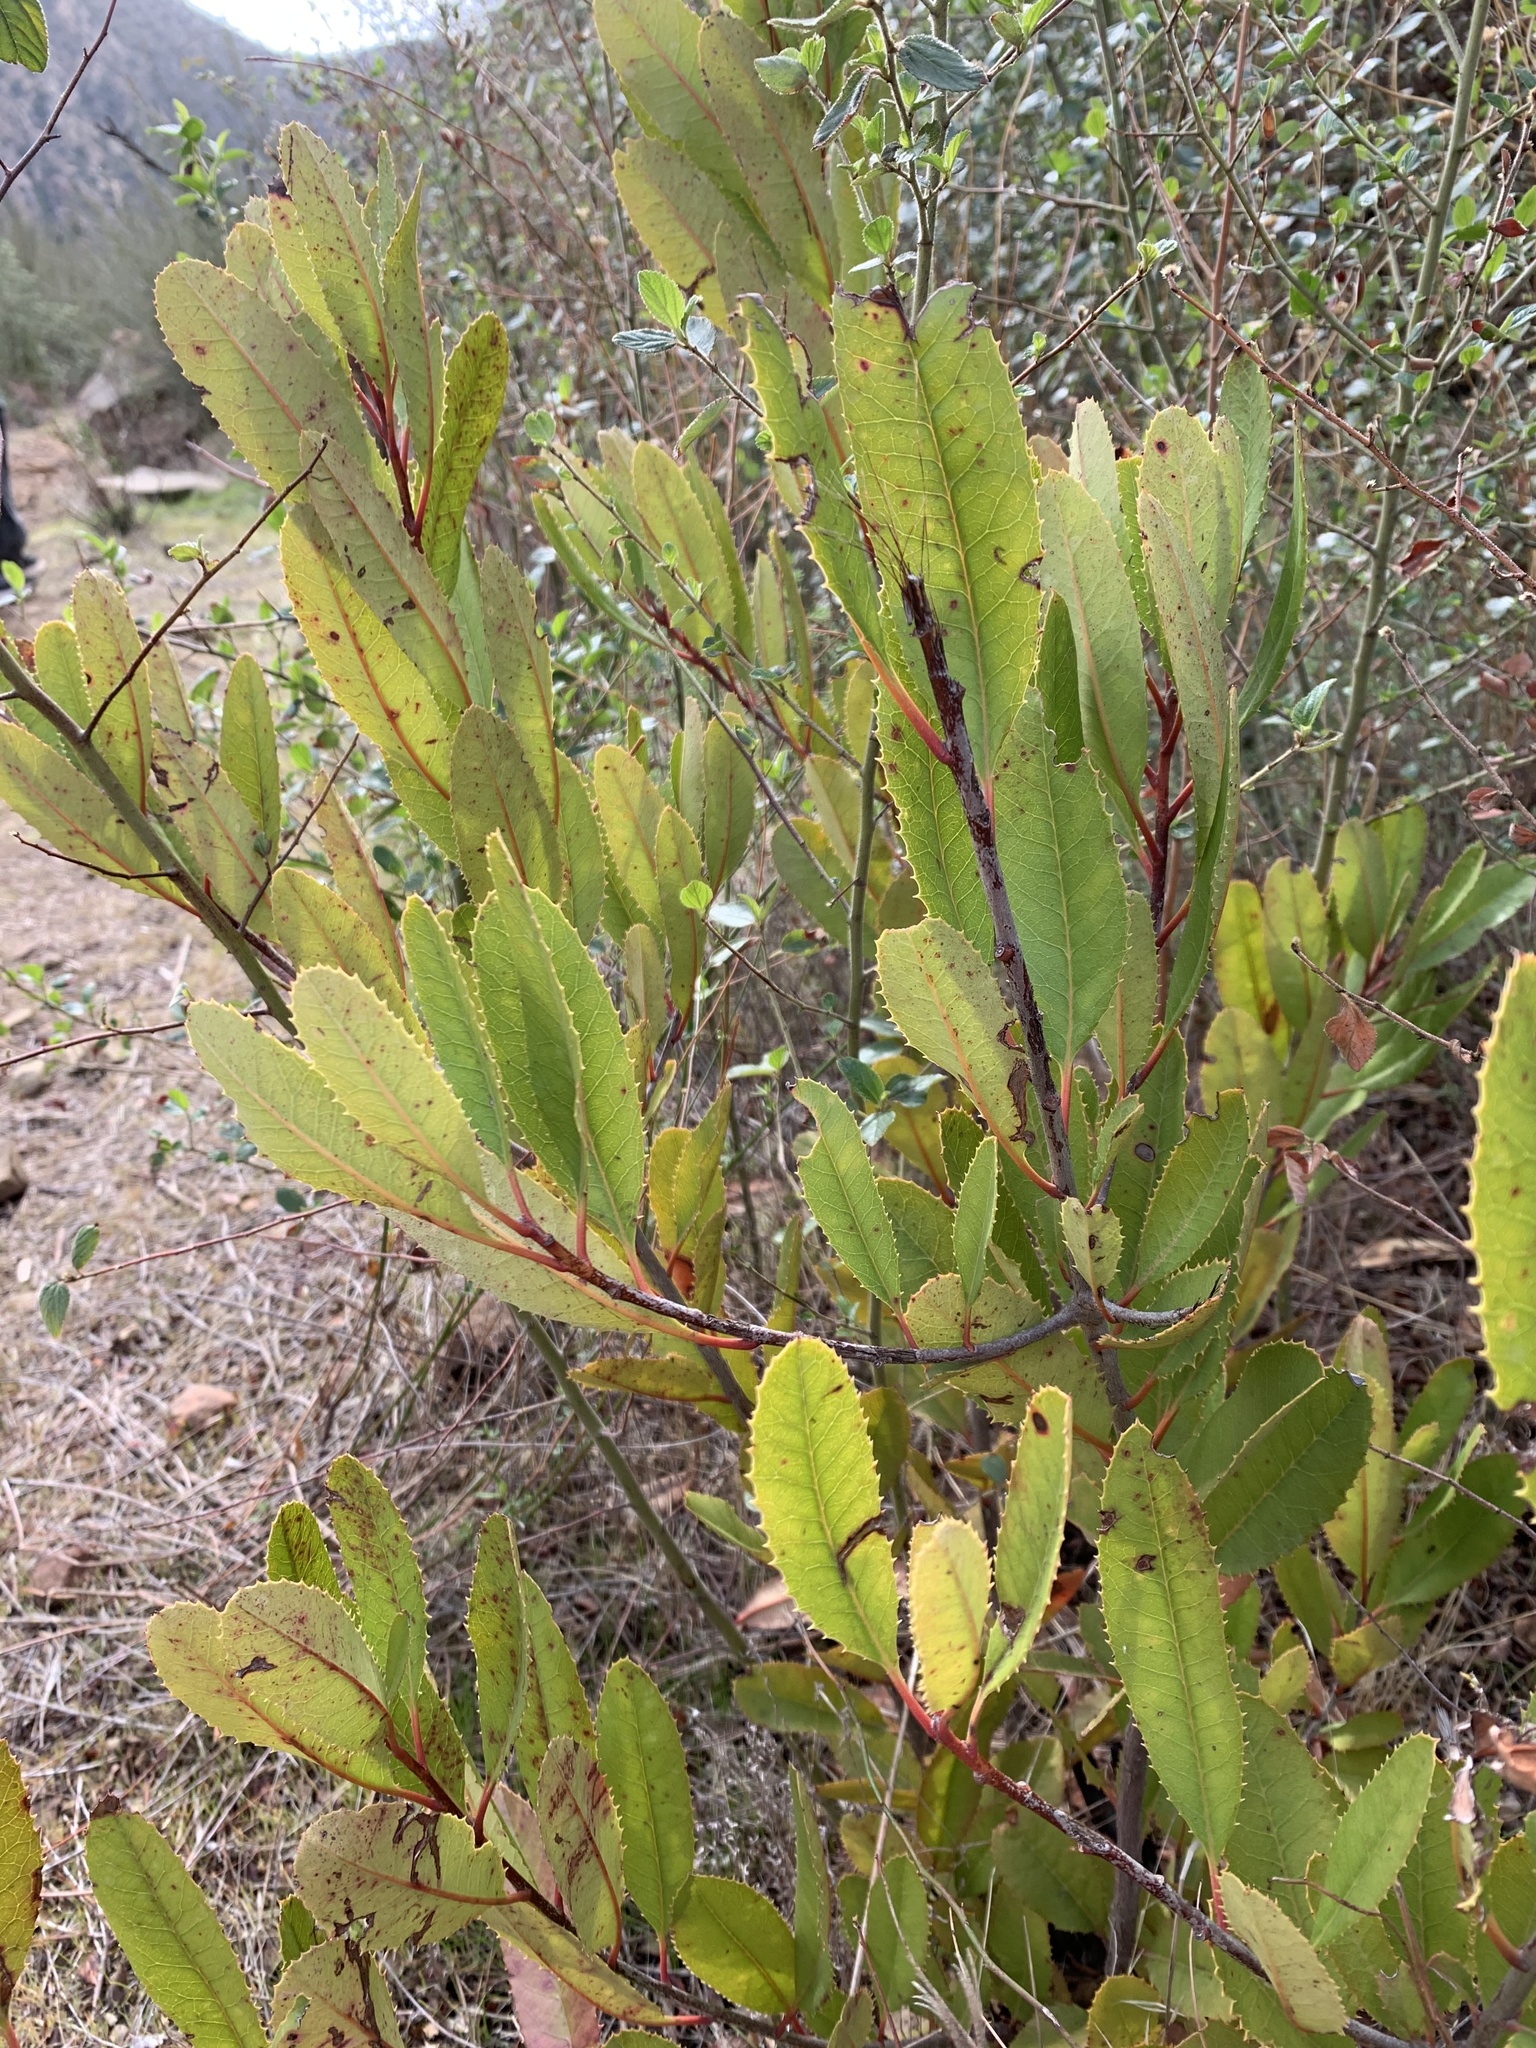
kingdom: Plantae
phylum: Tracheophyta
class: Magnoliopsida
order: Rosales
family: Rosaceae
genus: Heteromeles
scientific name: Heteromeles arbutifolia
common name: California-holly
